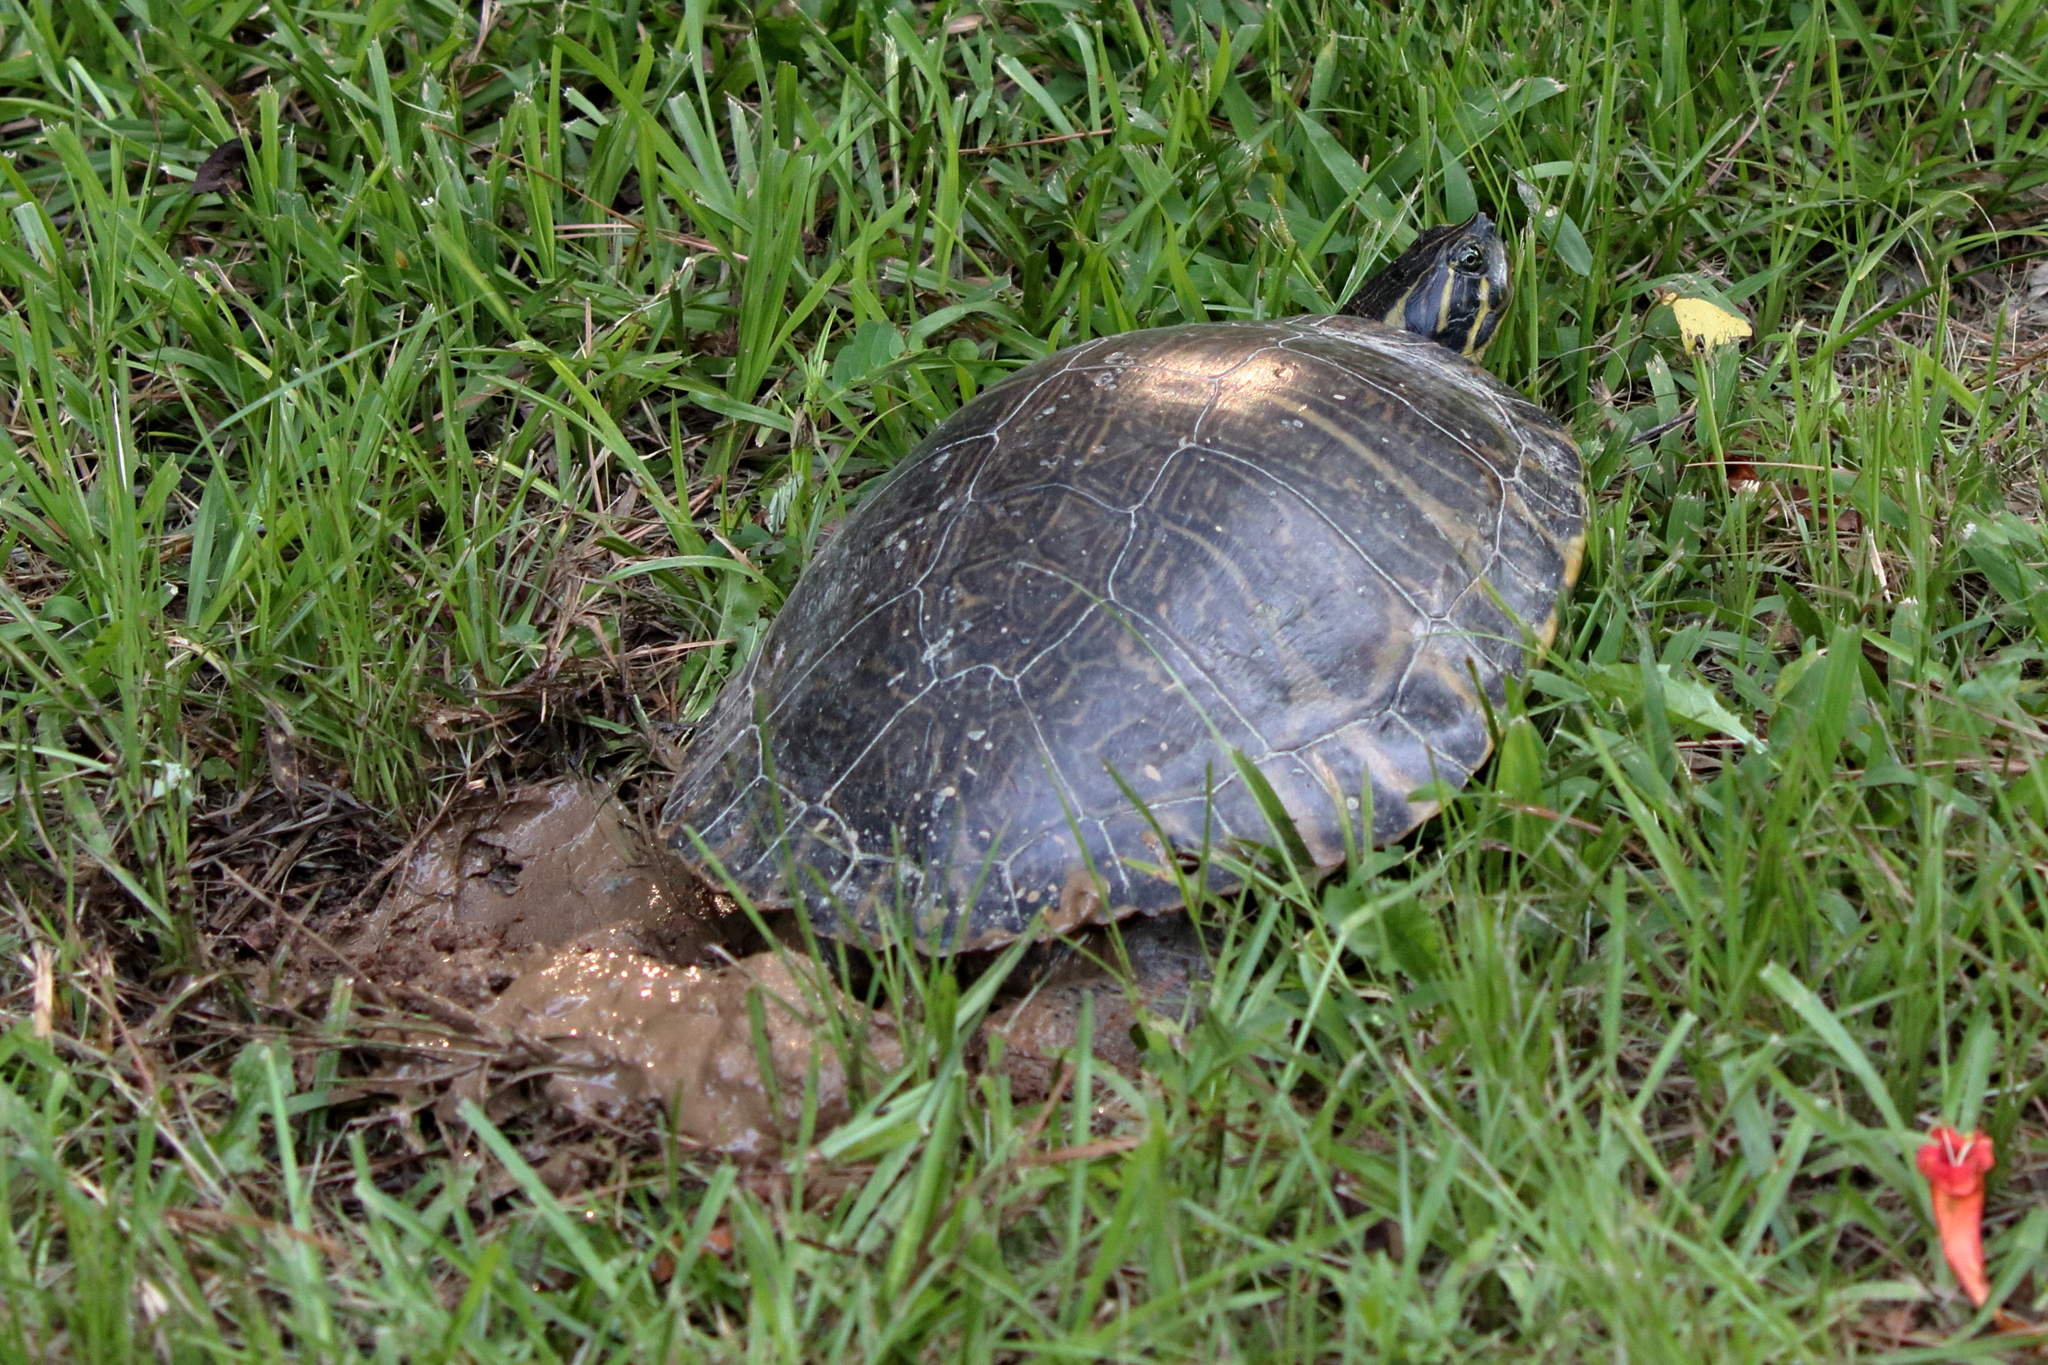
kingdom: Animalia
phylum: Chordata
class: Testudines
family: Emydidae
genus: Pseudemys
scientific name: Pseudemys concinna
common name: Eastern river cooter
